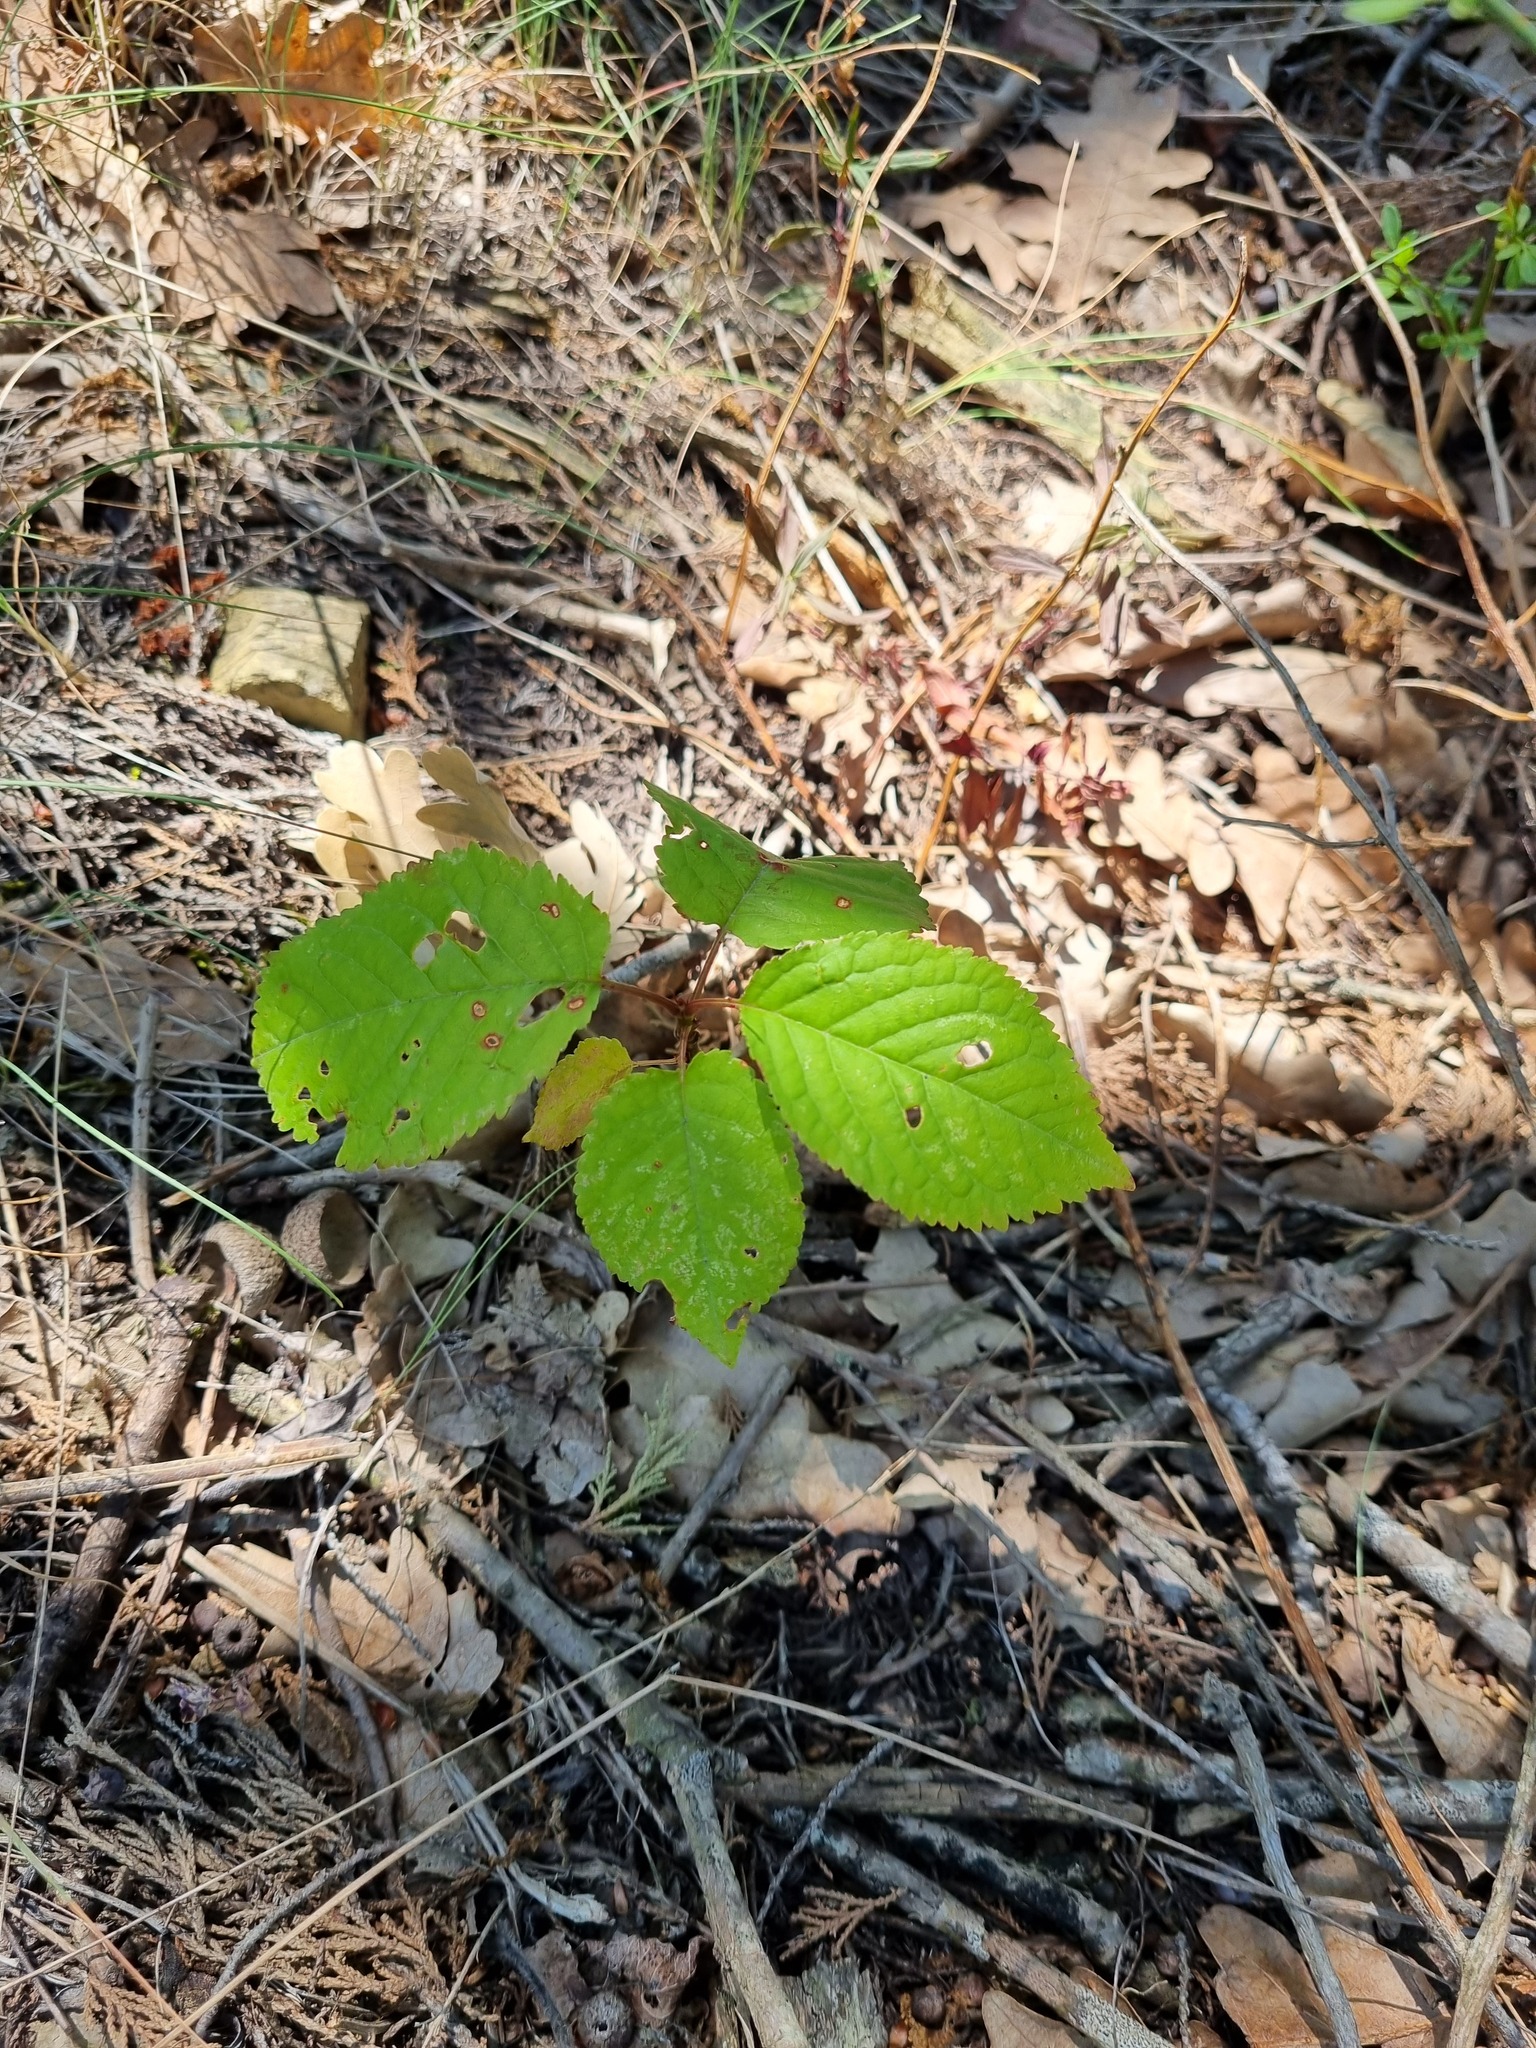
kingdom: Plantae
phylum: Tracheophyta
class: Magnoliopsida
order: Rosales
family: Rosaceae
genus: Prunus
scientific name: Prunus avium
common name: Sweet cherry
